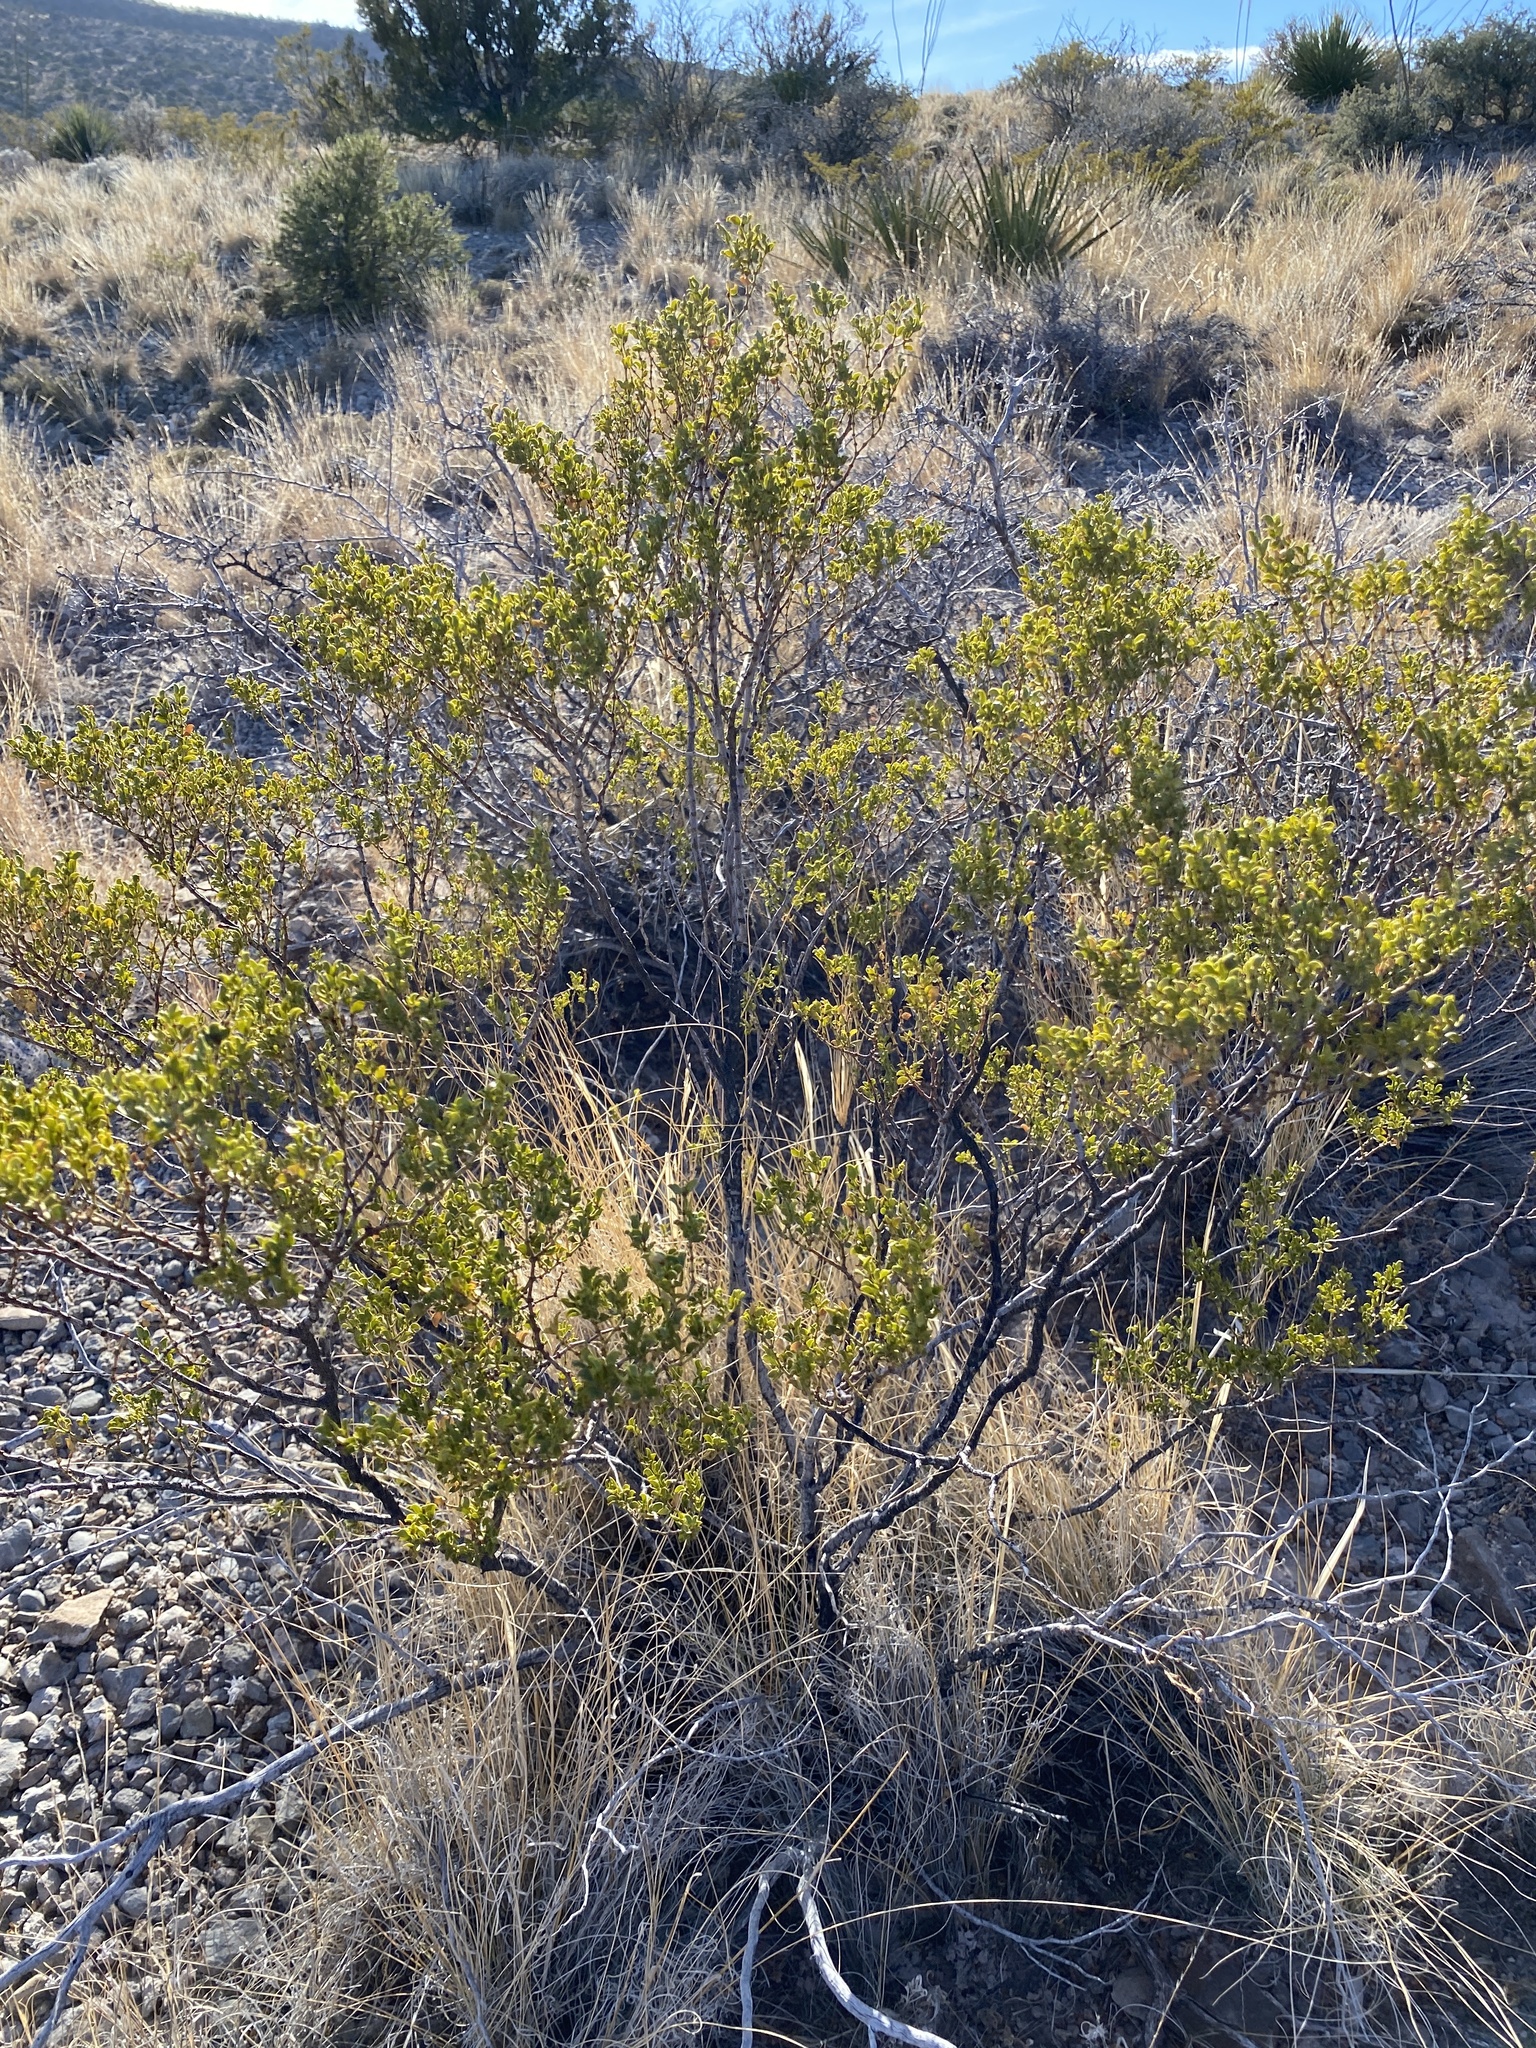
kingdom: Plantae
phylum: Tracheophyta
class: Magnoliopsida
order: Zygophyllales
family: Zygophyllaceae
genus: Larrea
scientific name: Larrea tridentata
